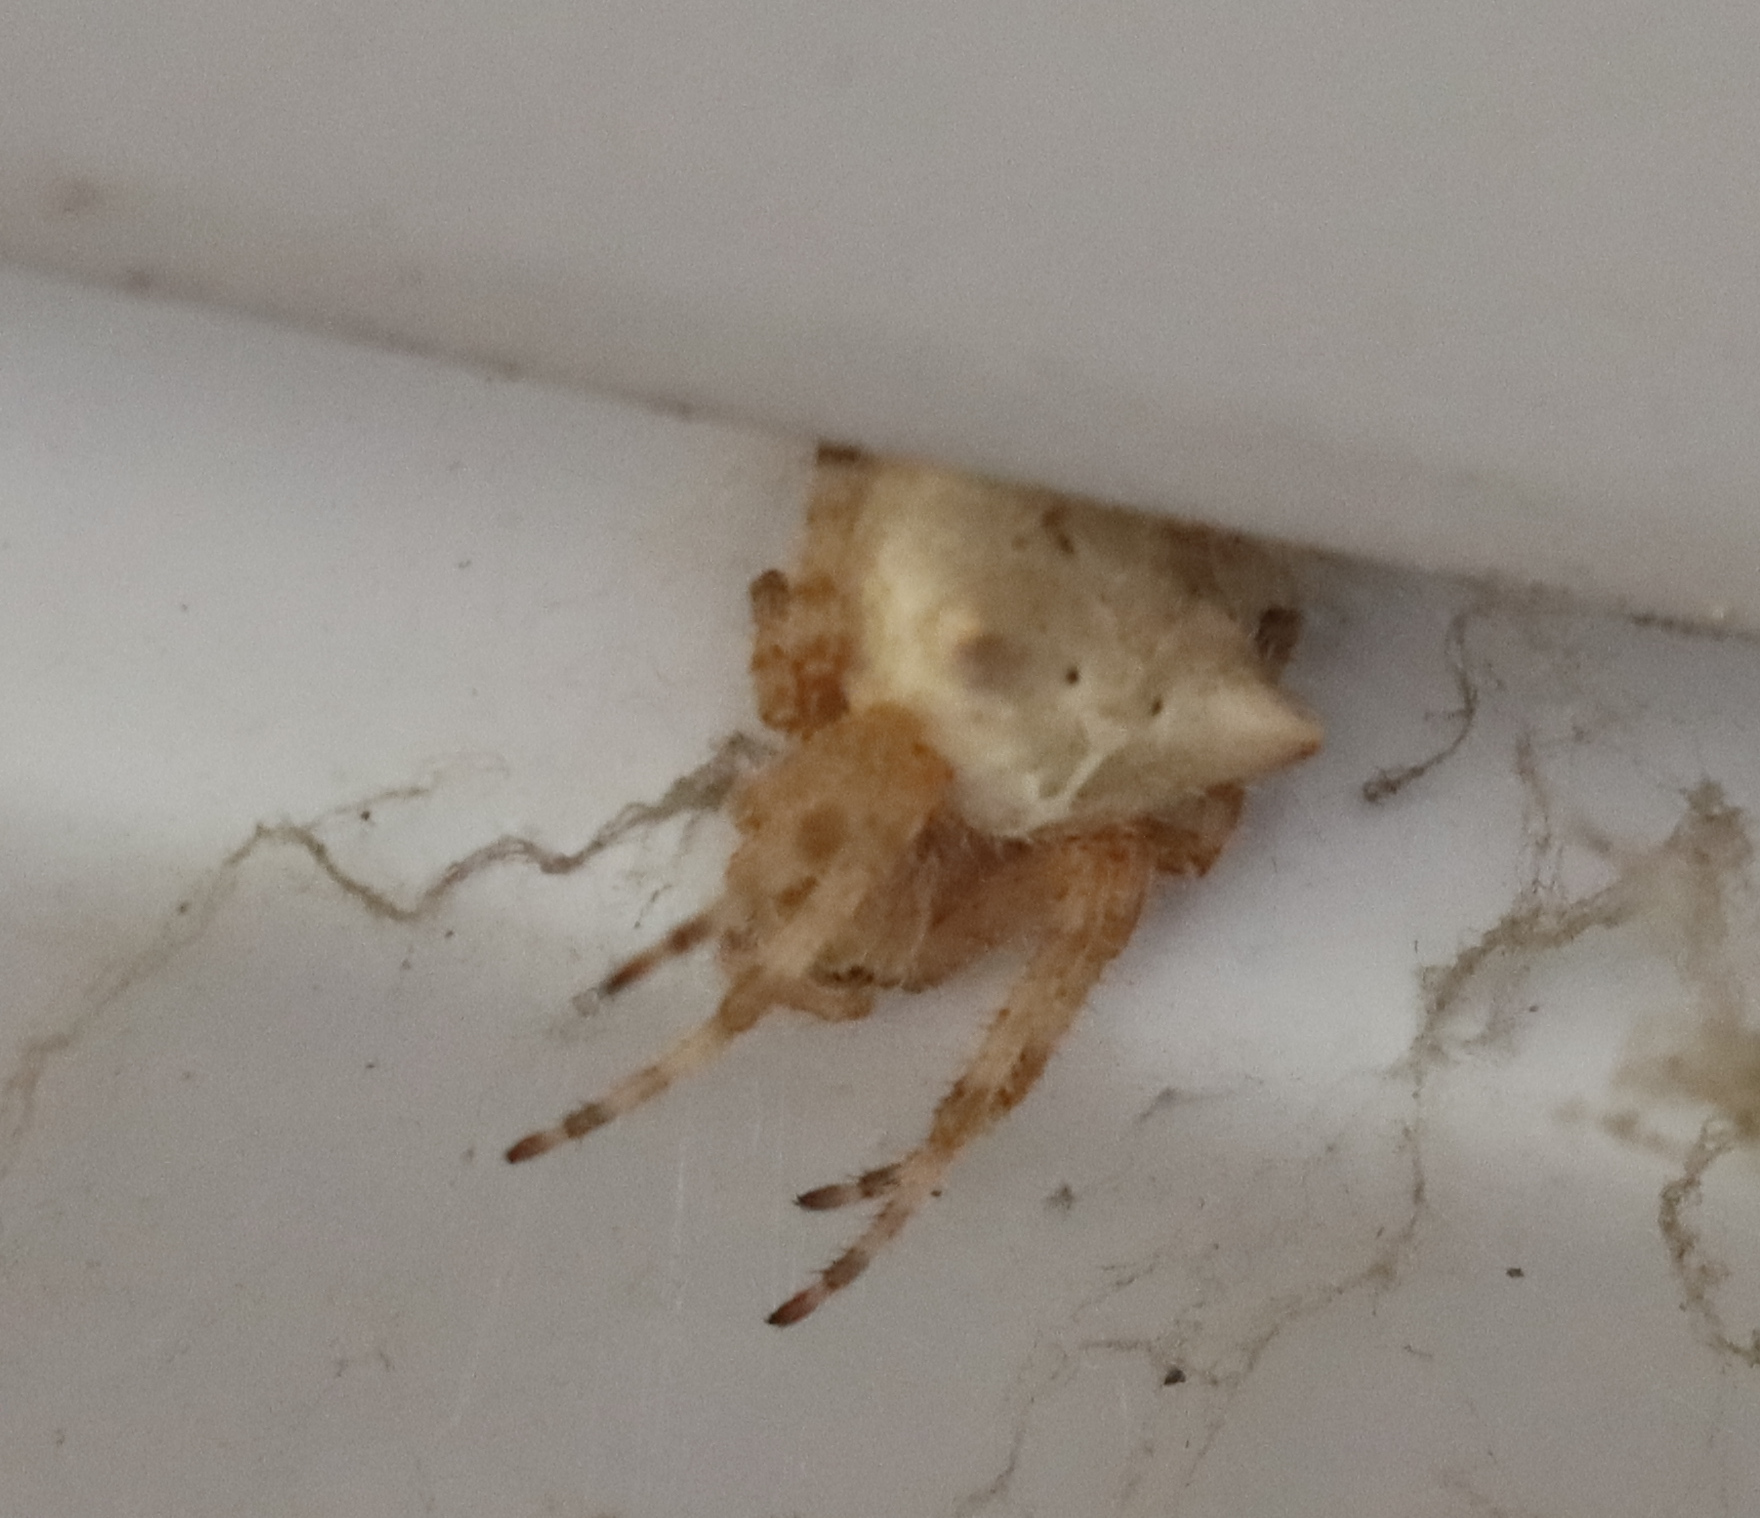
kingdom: Animalia
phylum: Arthropoda
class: Arachnida
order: Araneae
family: Araneidae
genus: Araneus
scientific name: Araneus gemmoides
